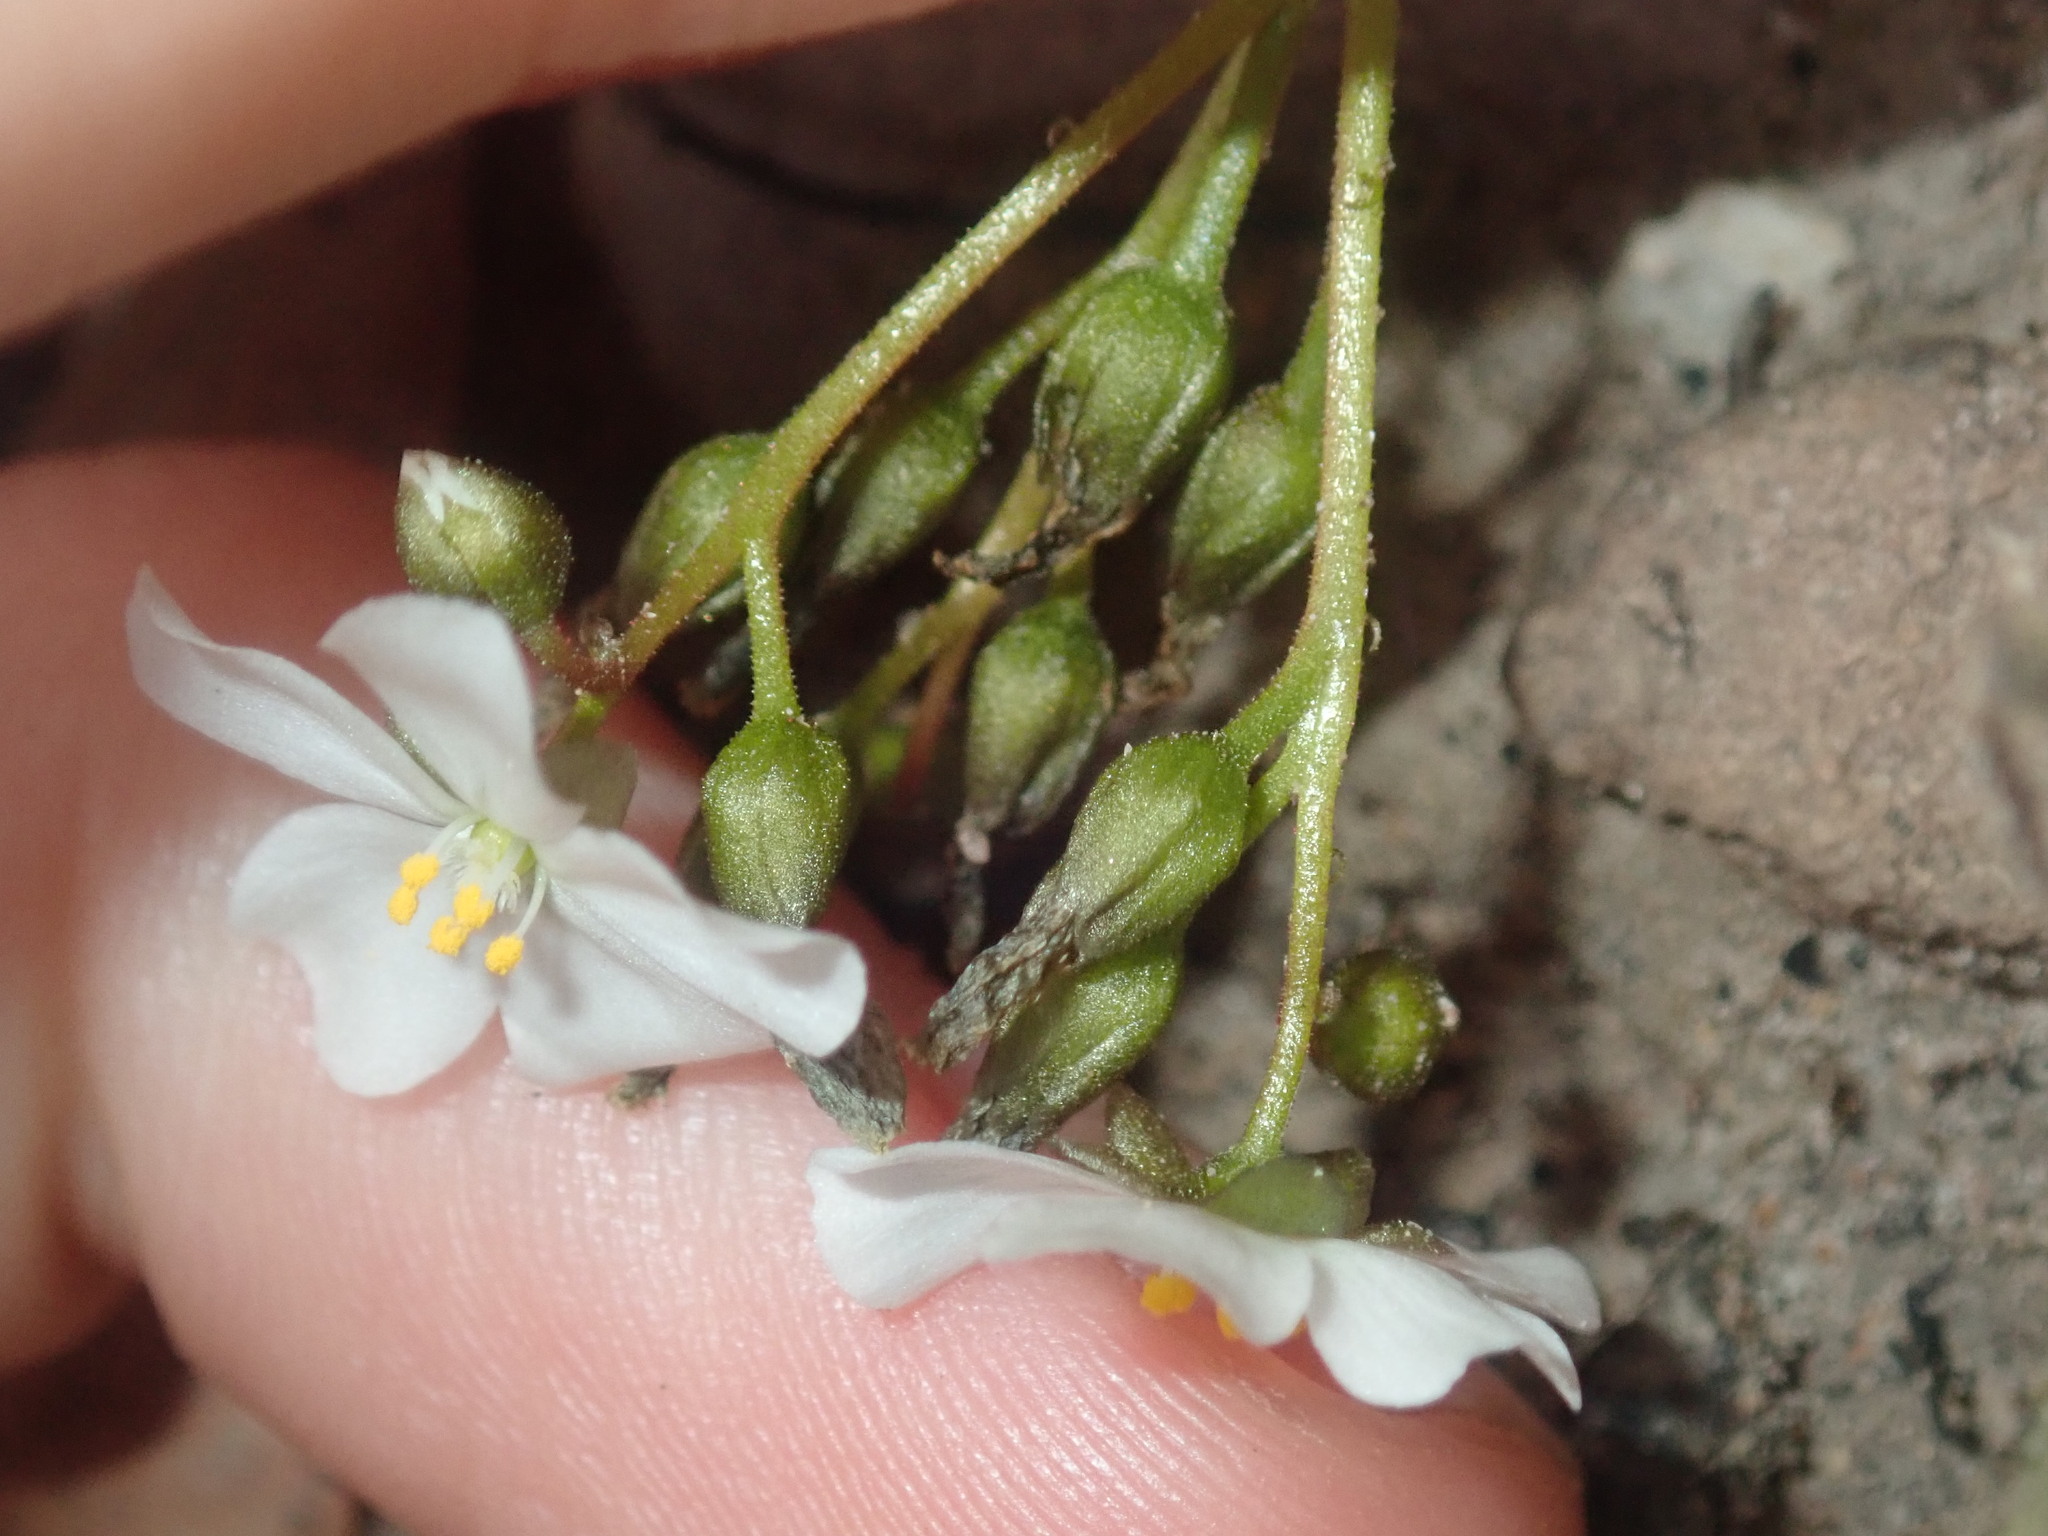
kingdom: Plantae
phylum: Tracheophyta
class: Magnoliopsida
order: Caryophyllales
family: Droseraceae
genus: Drosera
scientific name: Drosera stolonifera
